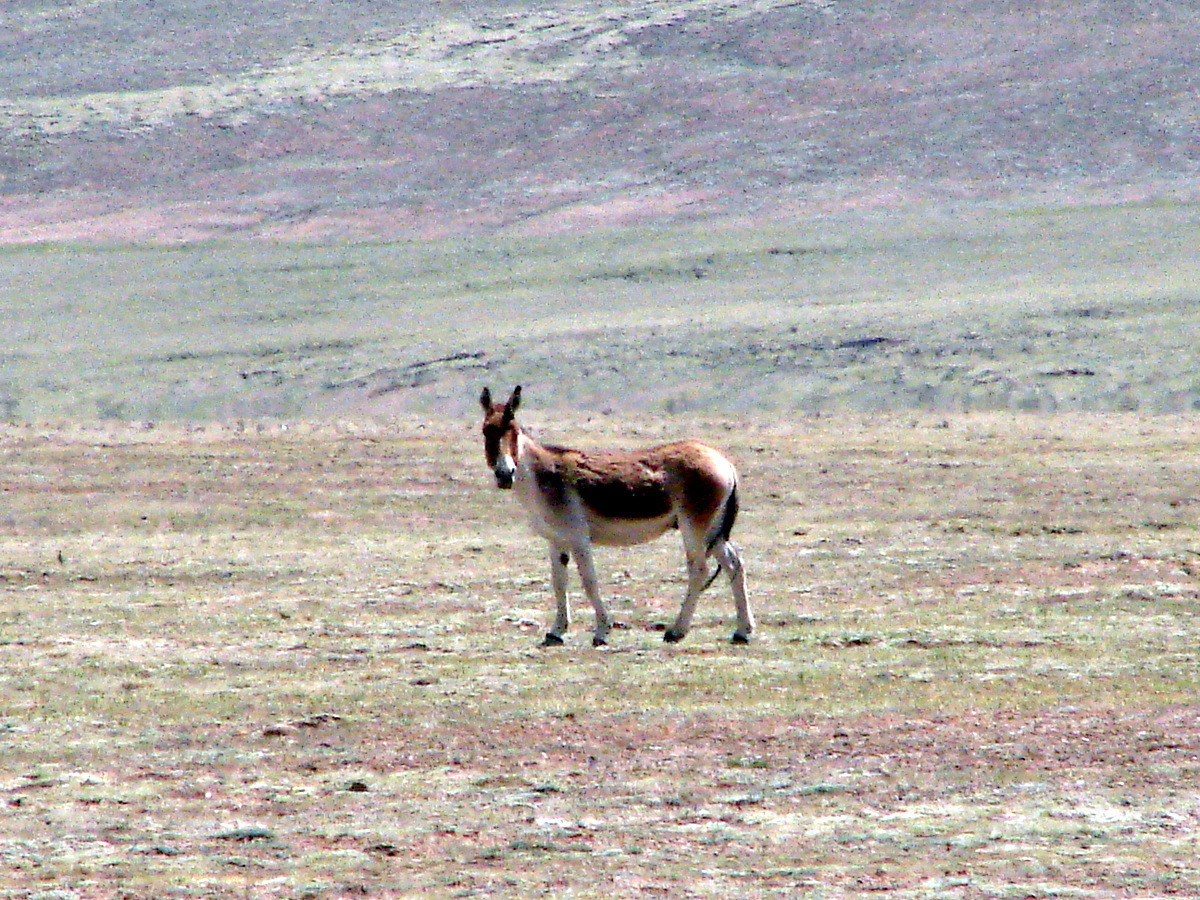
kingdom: Animalia
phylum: Chordata
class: Mammalia
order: Perissodactyla
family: Equidae
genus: Equus
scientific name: Equus kiang
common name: Kiang
